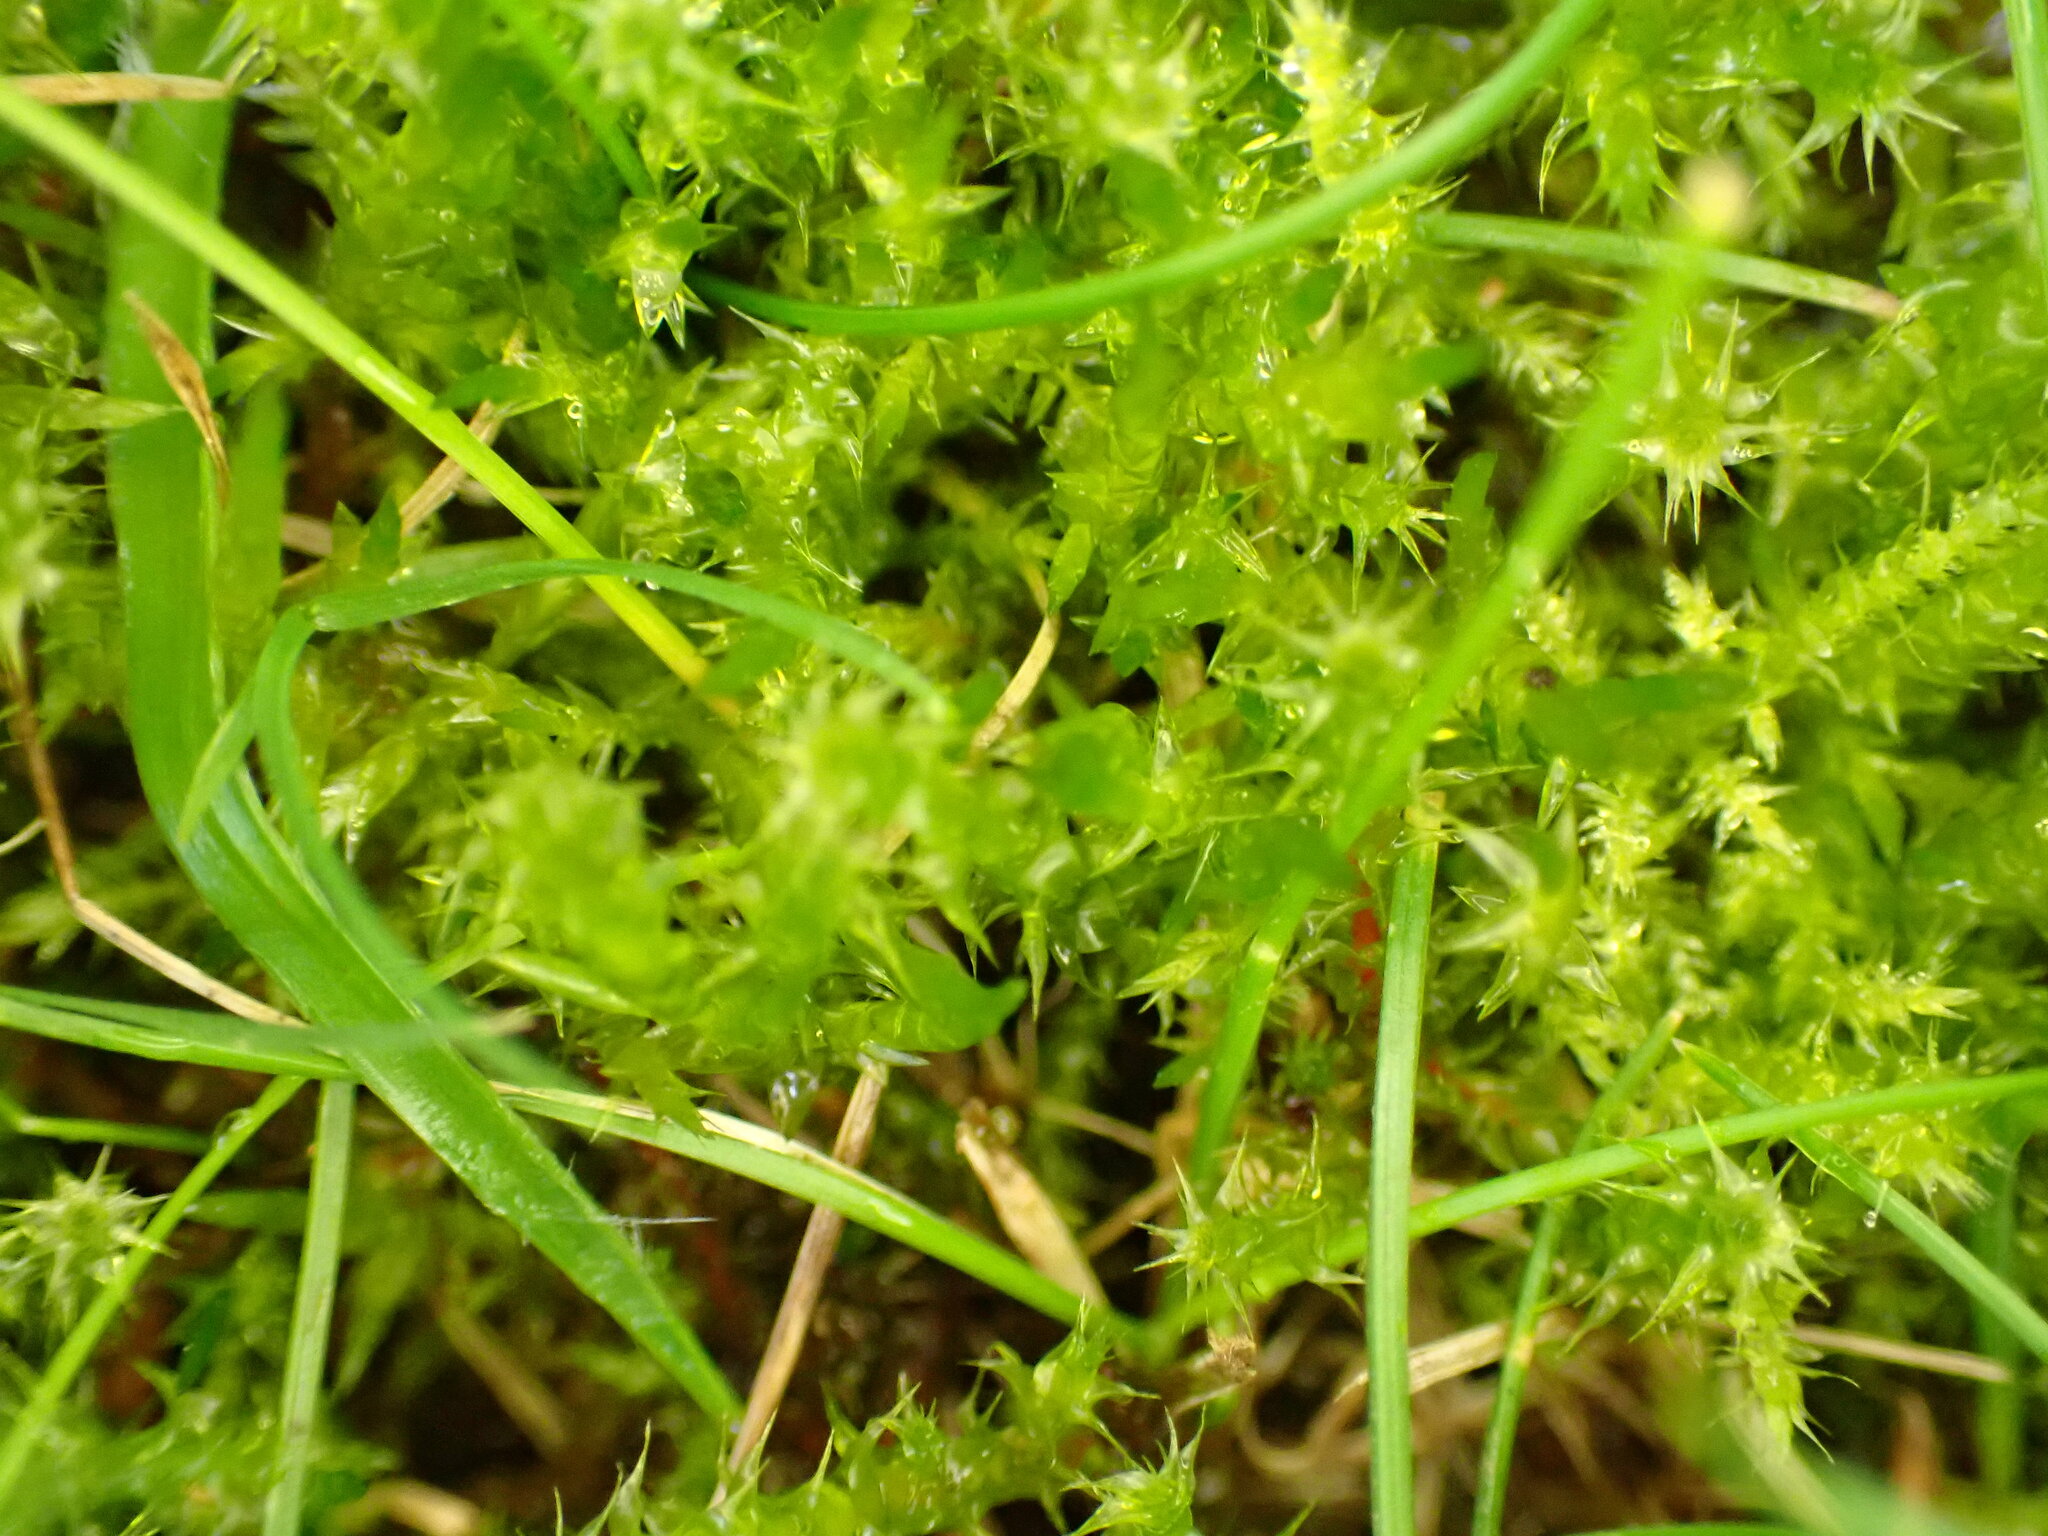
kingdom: Plantae
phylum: Bryophyta
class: Bryopsida
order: Hypnales
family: Hylocomiaceae
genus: Rhytidiadelphus
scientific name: Rhytidiadelphus squarrosus
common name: Springy turf-moss
